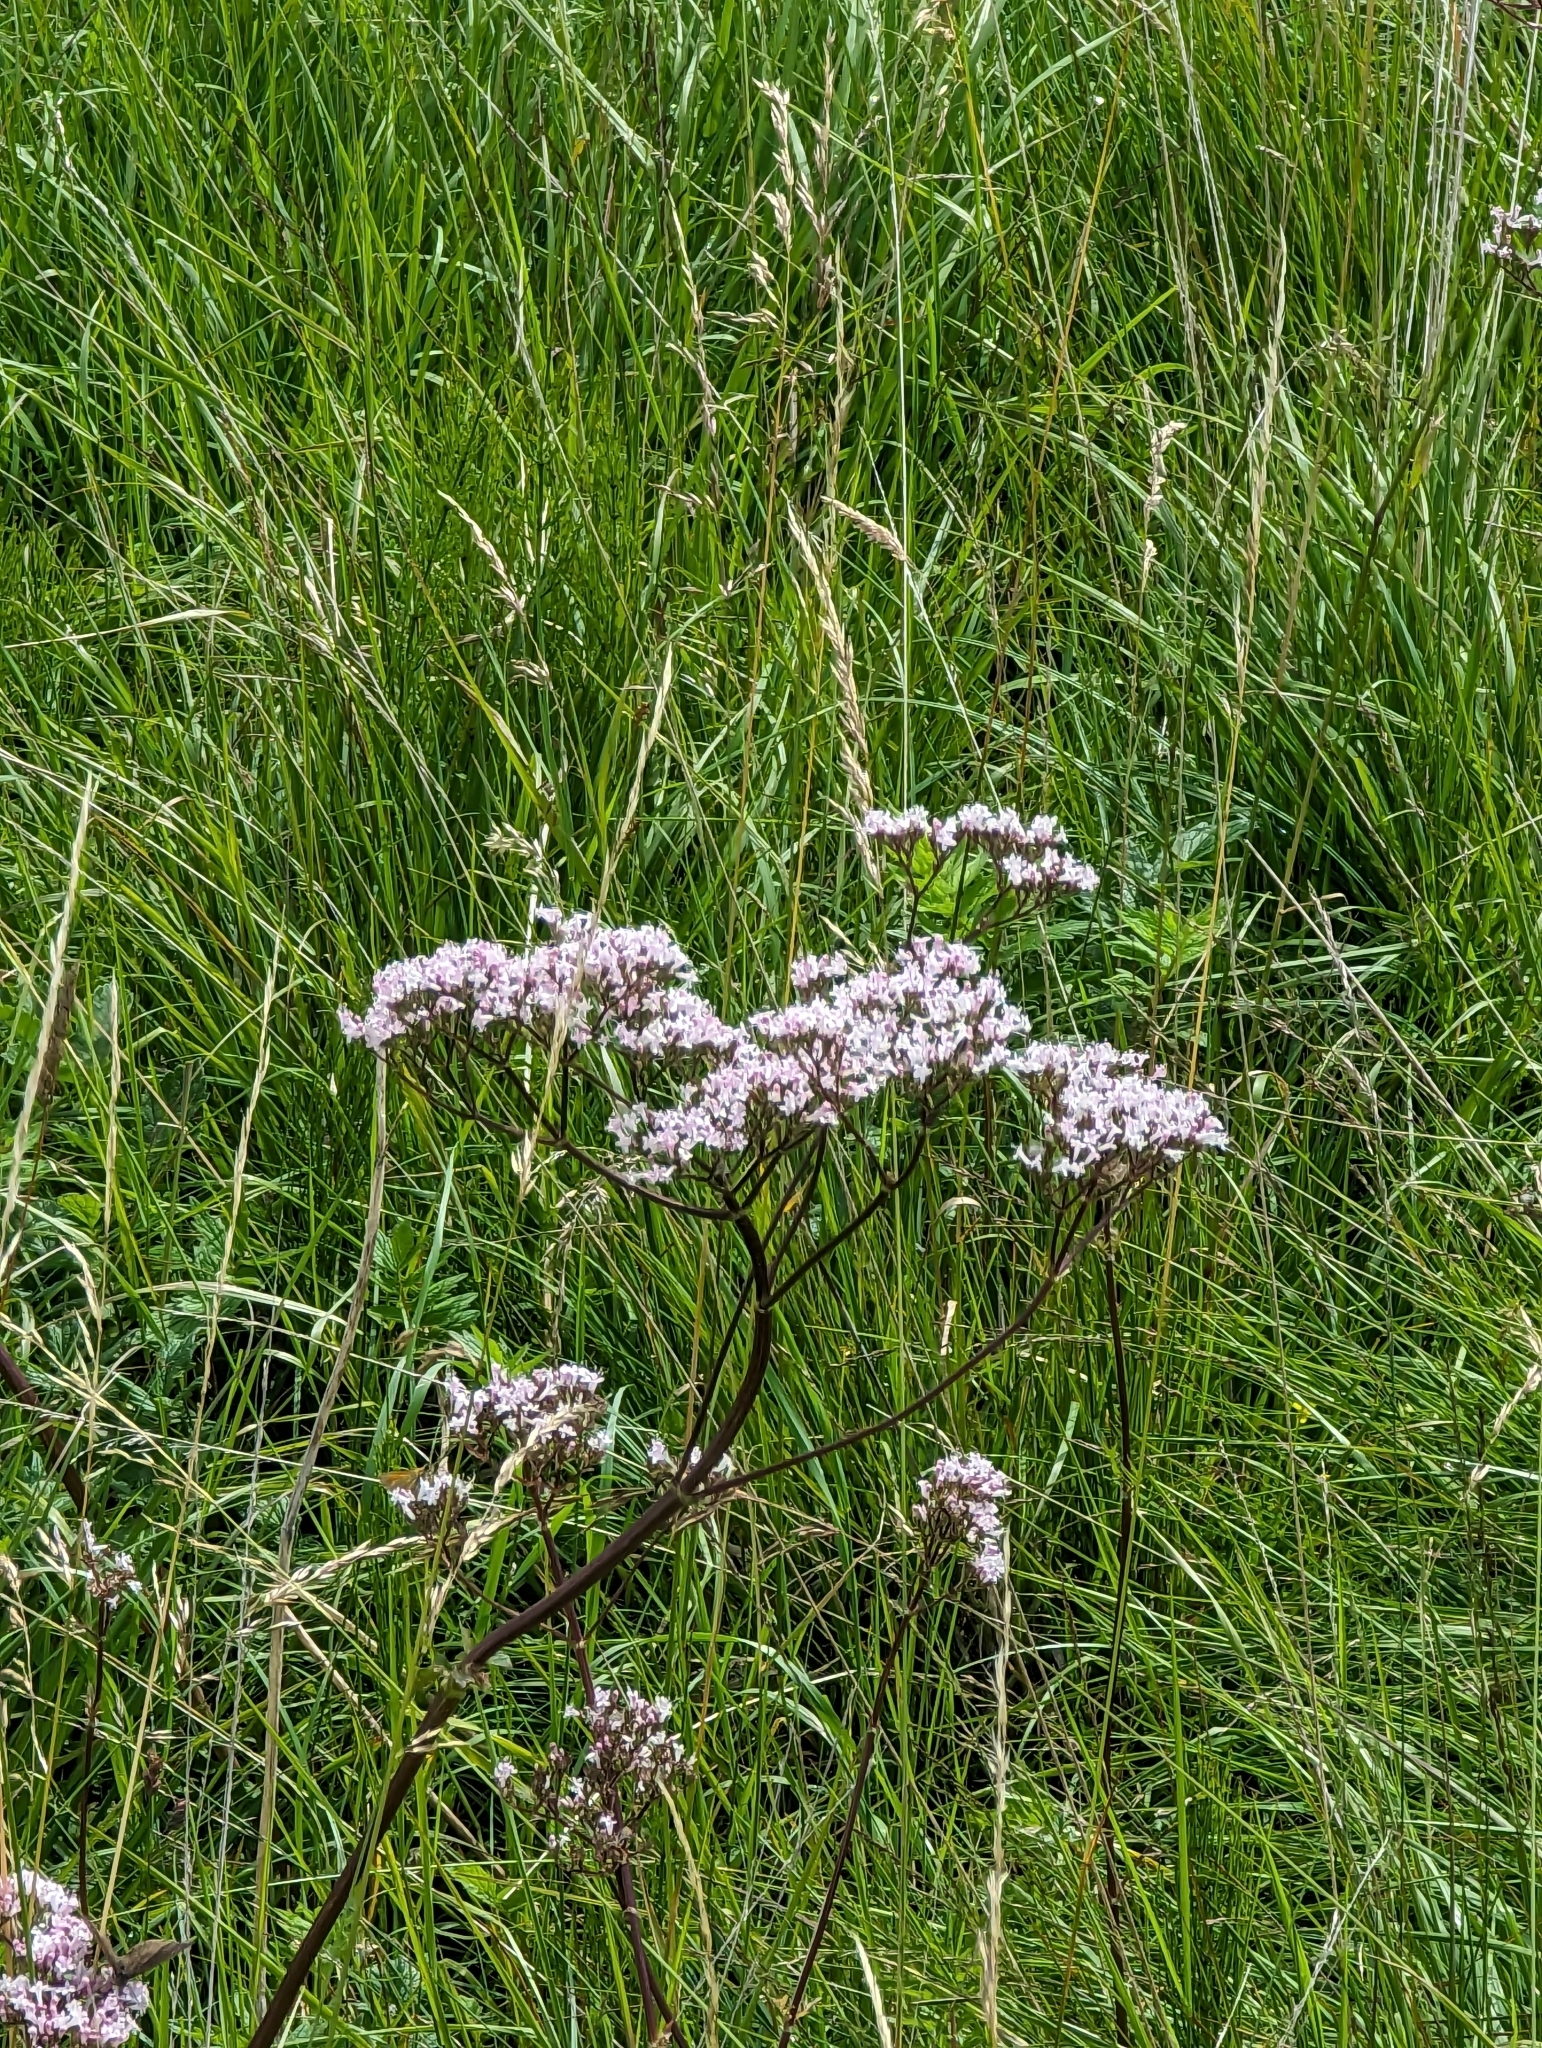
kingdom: Plantae
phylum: Tracheophyta
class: Magnoliopsida
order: Dipsacales
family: Caprifoliaceae
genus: Valeriana
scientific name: Valeriana officinalis
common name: Common valerian
